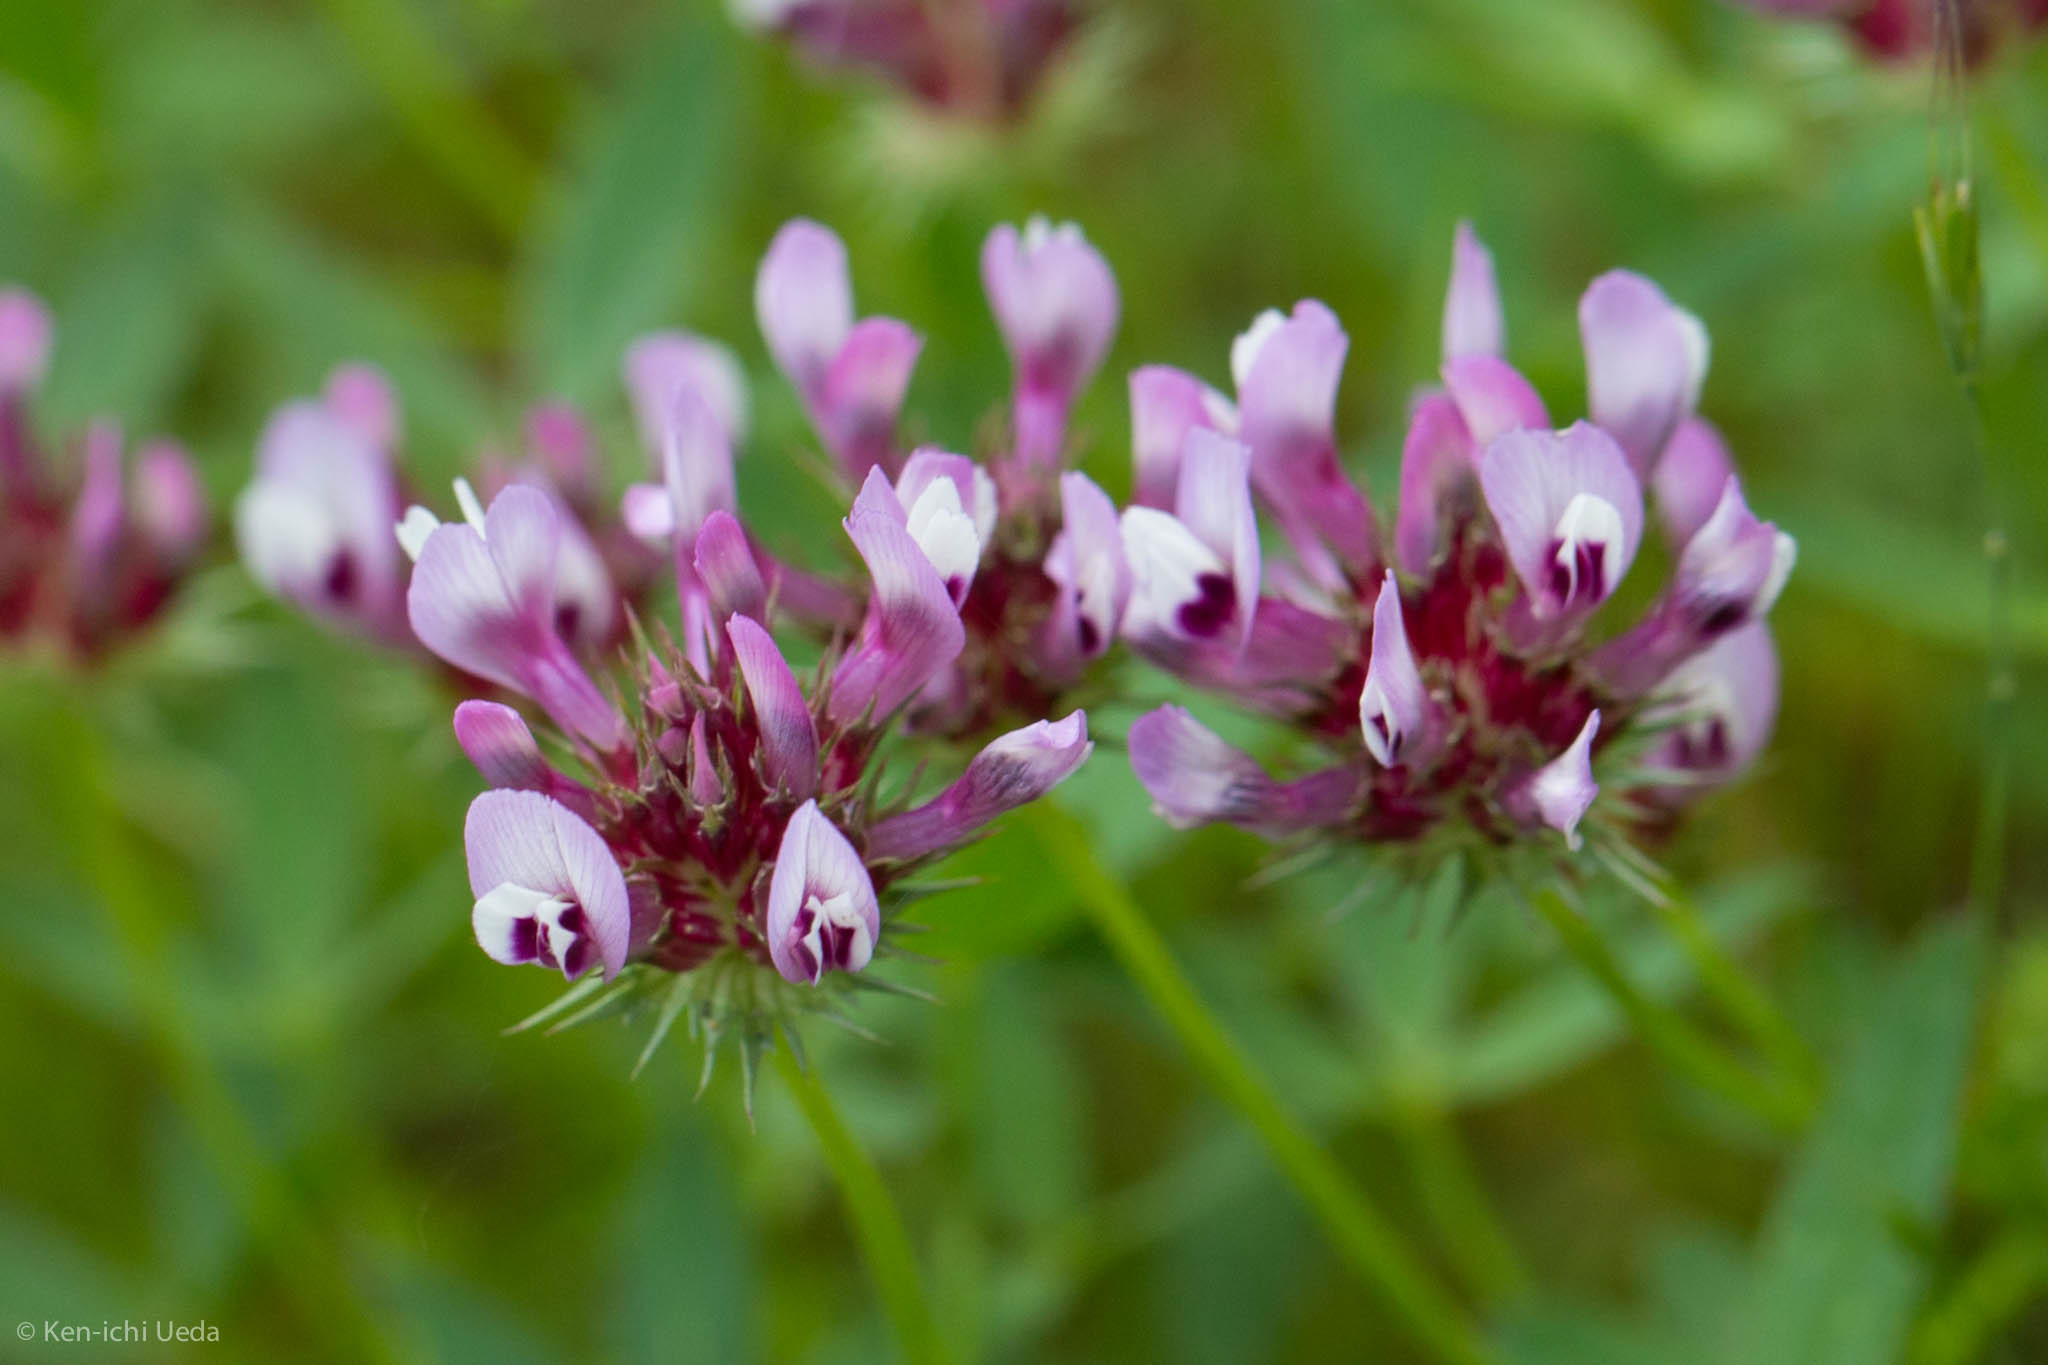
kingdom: Plantae
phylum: Tracheophyta
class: Magnoliopsida
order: Fabales
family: Fabaceae
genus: Trifolium
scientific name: Trifolium willdenovii
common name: Tomcat clover
